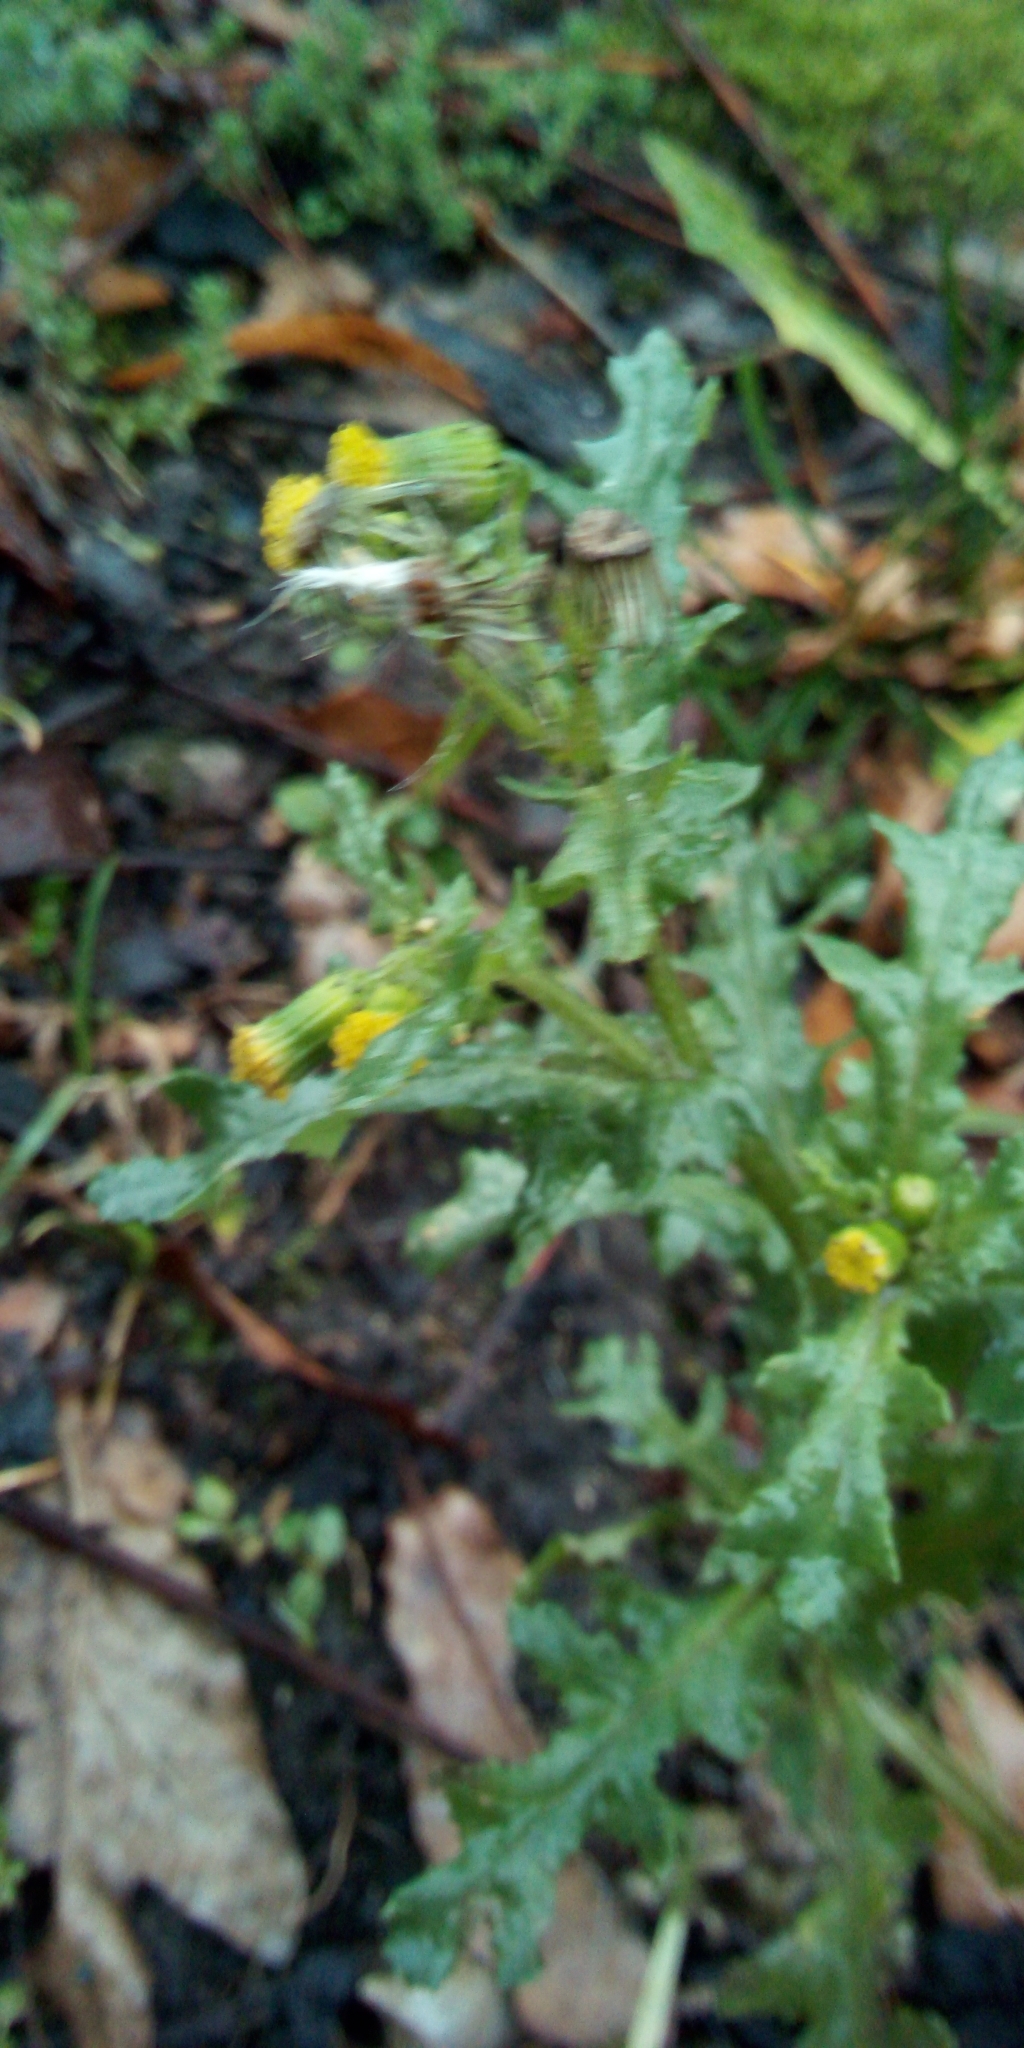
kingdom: Plantae
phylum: Tracheophyta
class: Magnoliopsida
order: Asterales
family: Asteraceae
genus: Senecio
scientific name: Senecio vulgaris
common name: Old-man-in-the-spring
